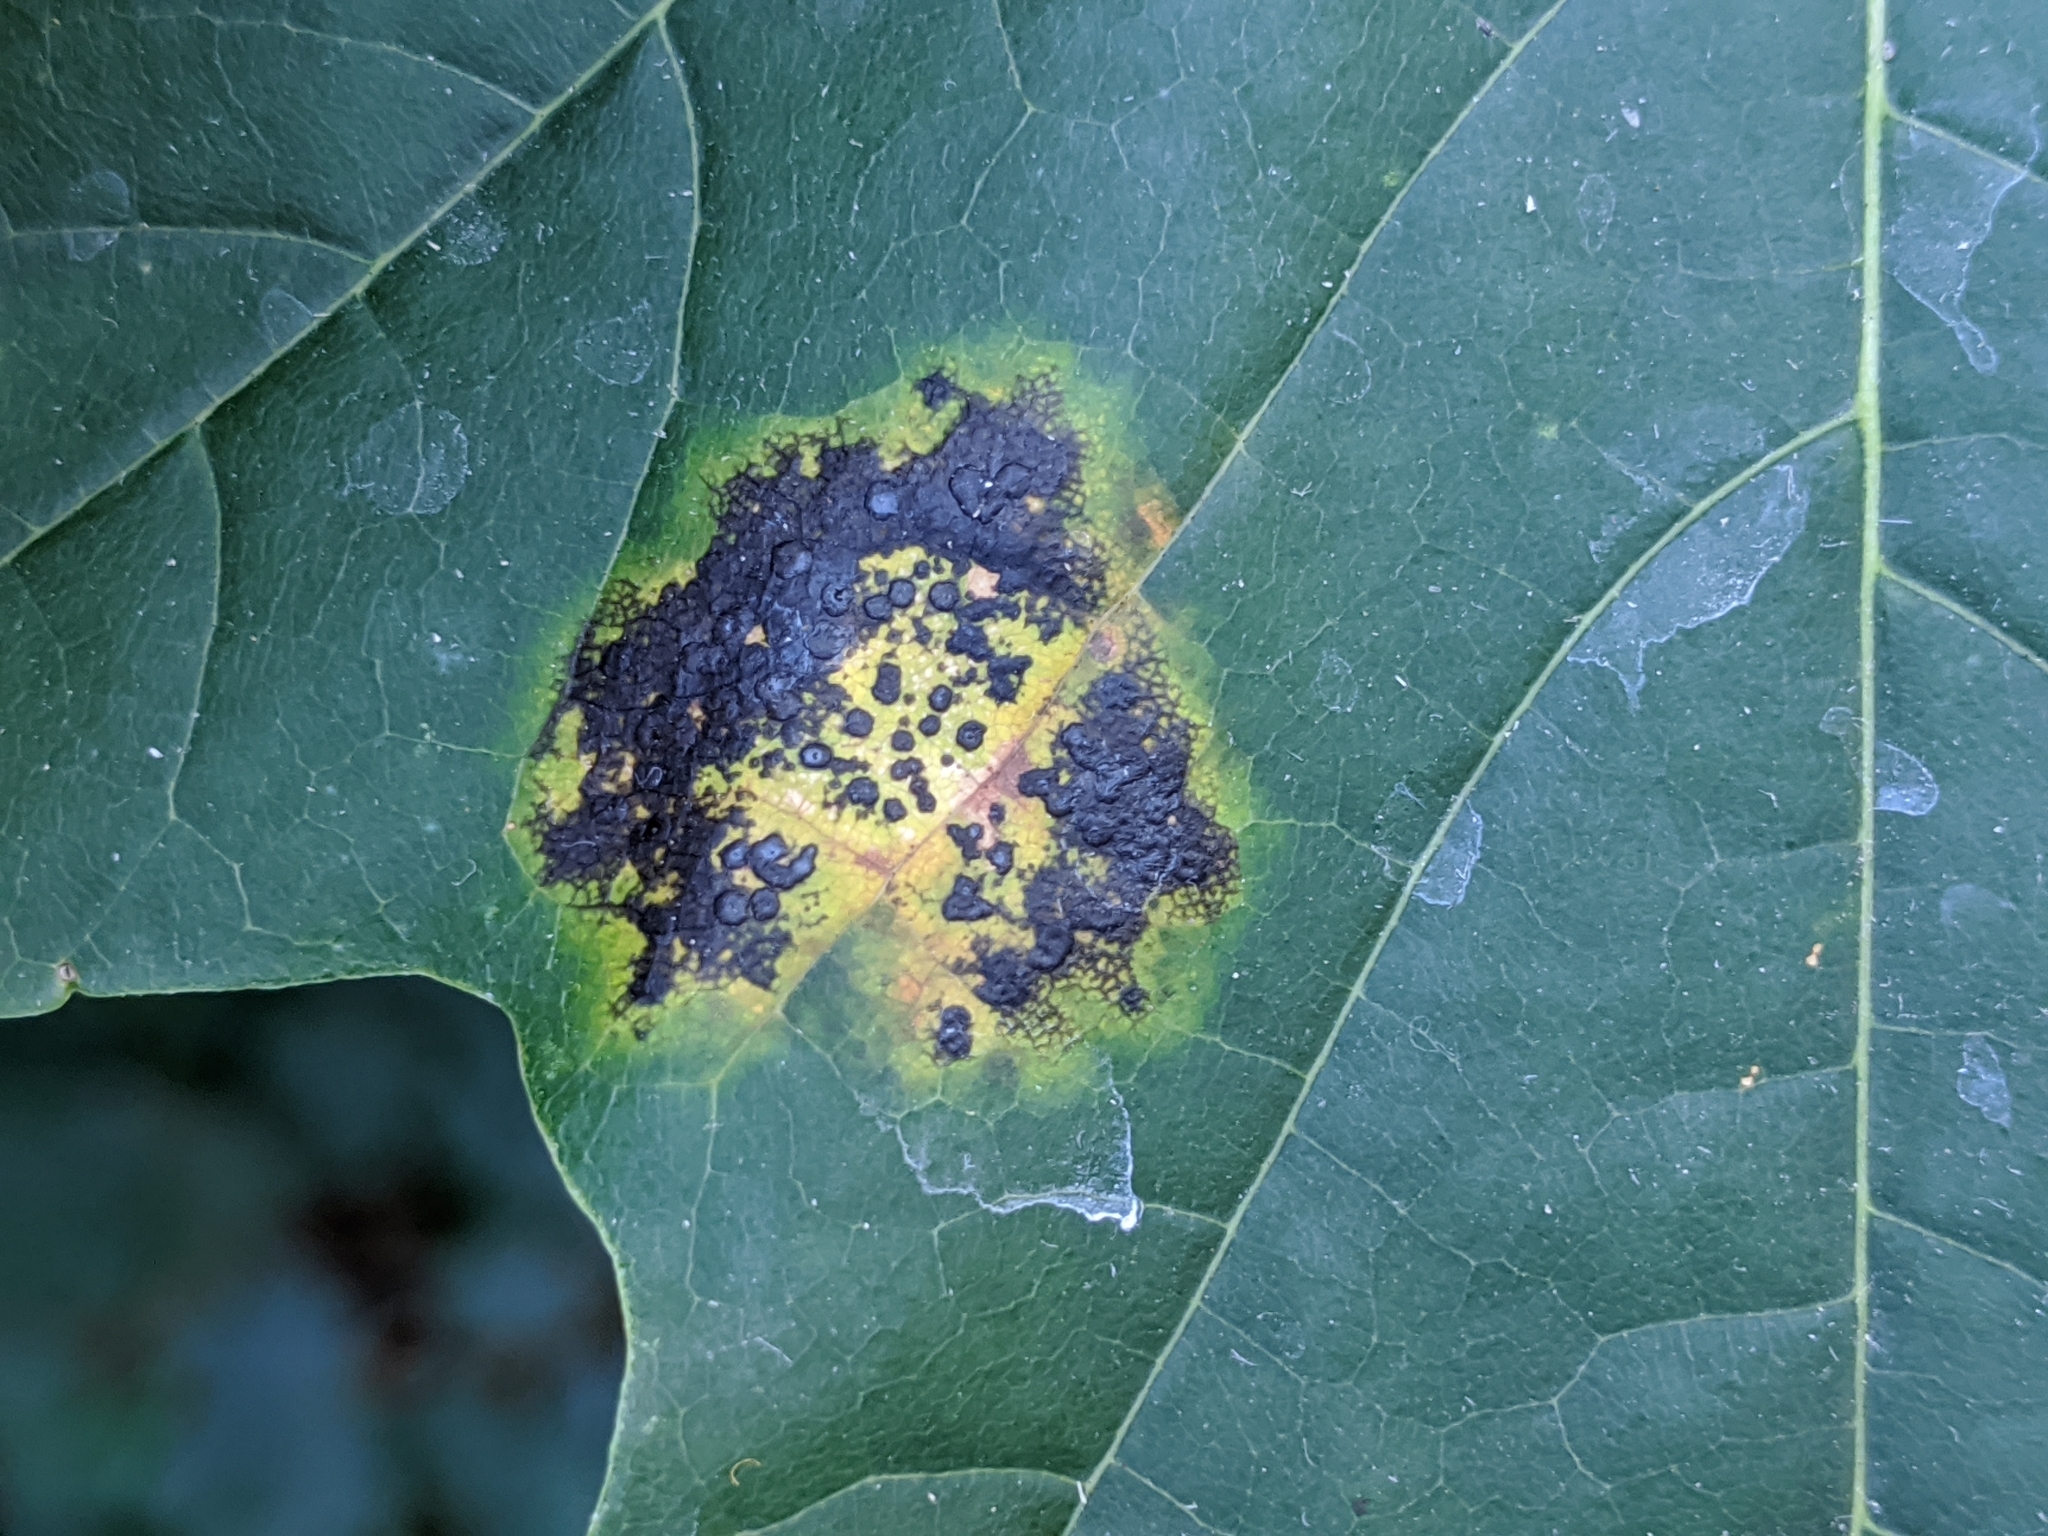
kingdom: Fungi
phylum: Ascomycota
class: Leotiomycetes
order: Rhytismatales
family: Rhytismataceae
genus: Rhytisma
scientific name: Rhytisma acerinum
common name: European tar spot
